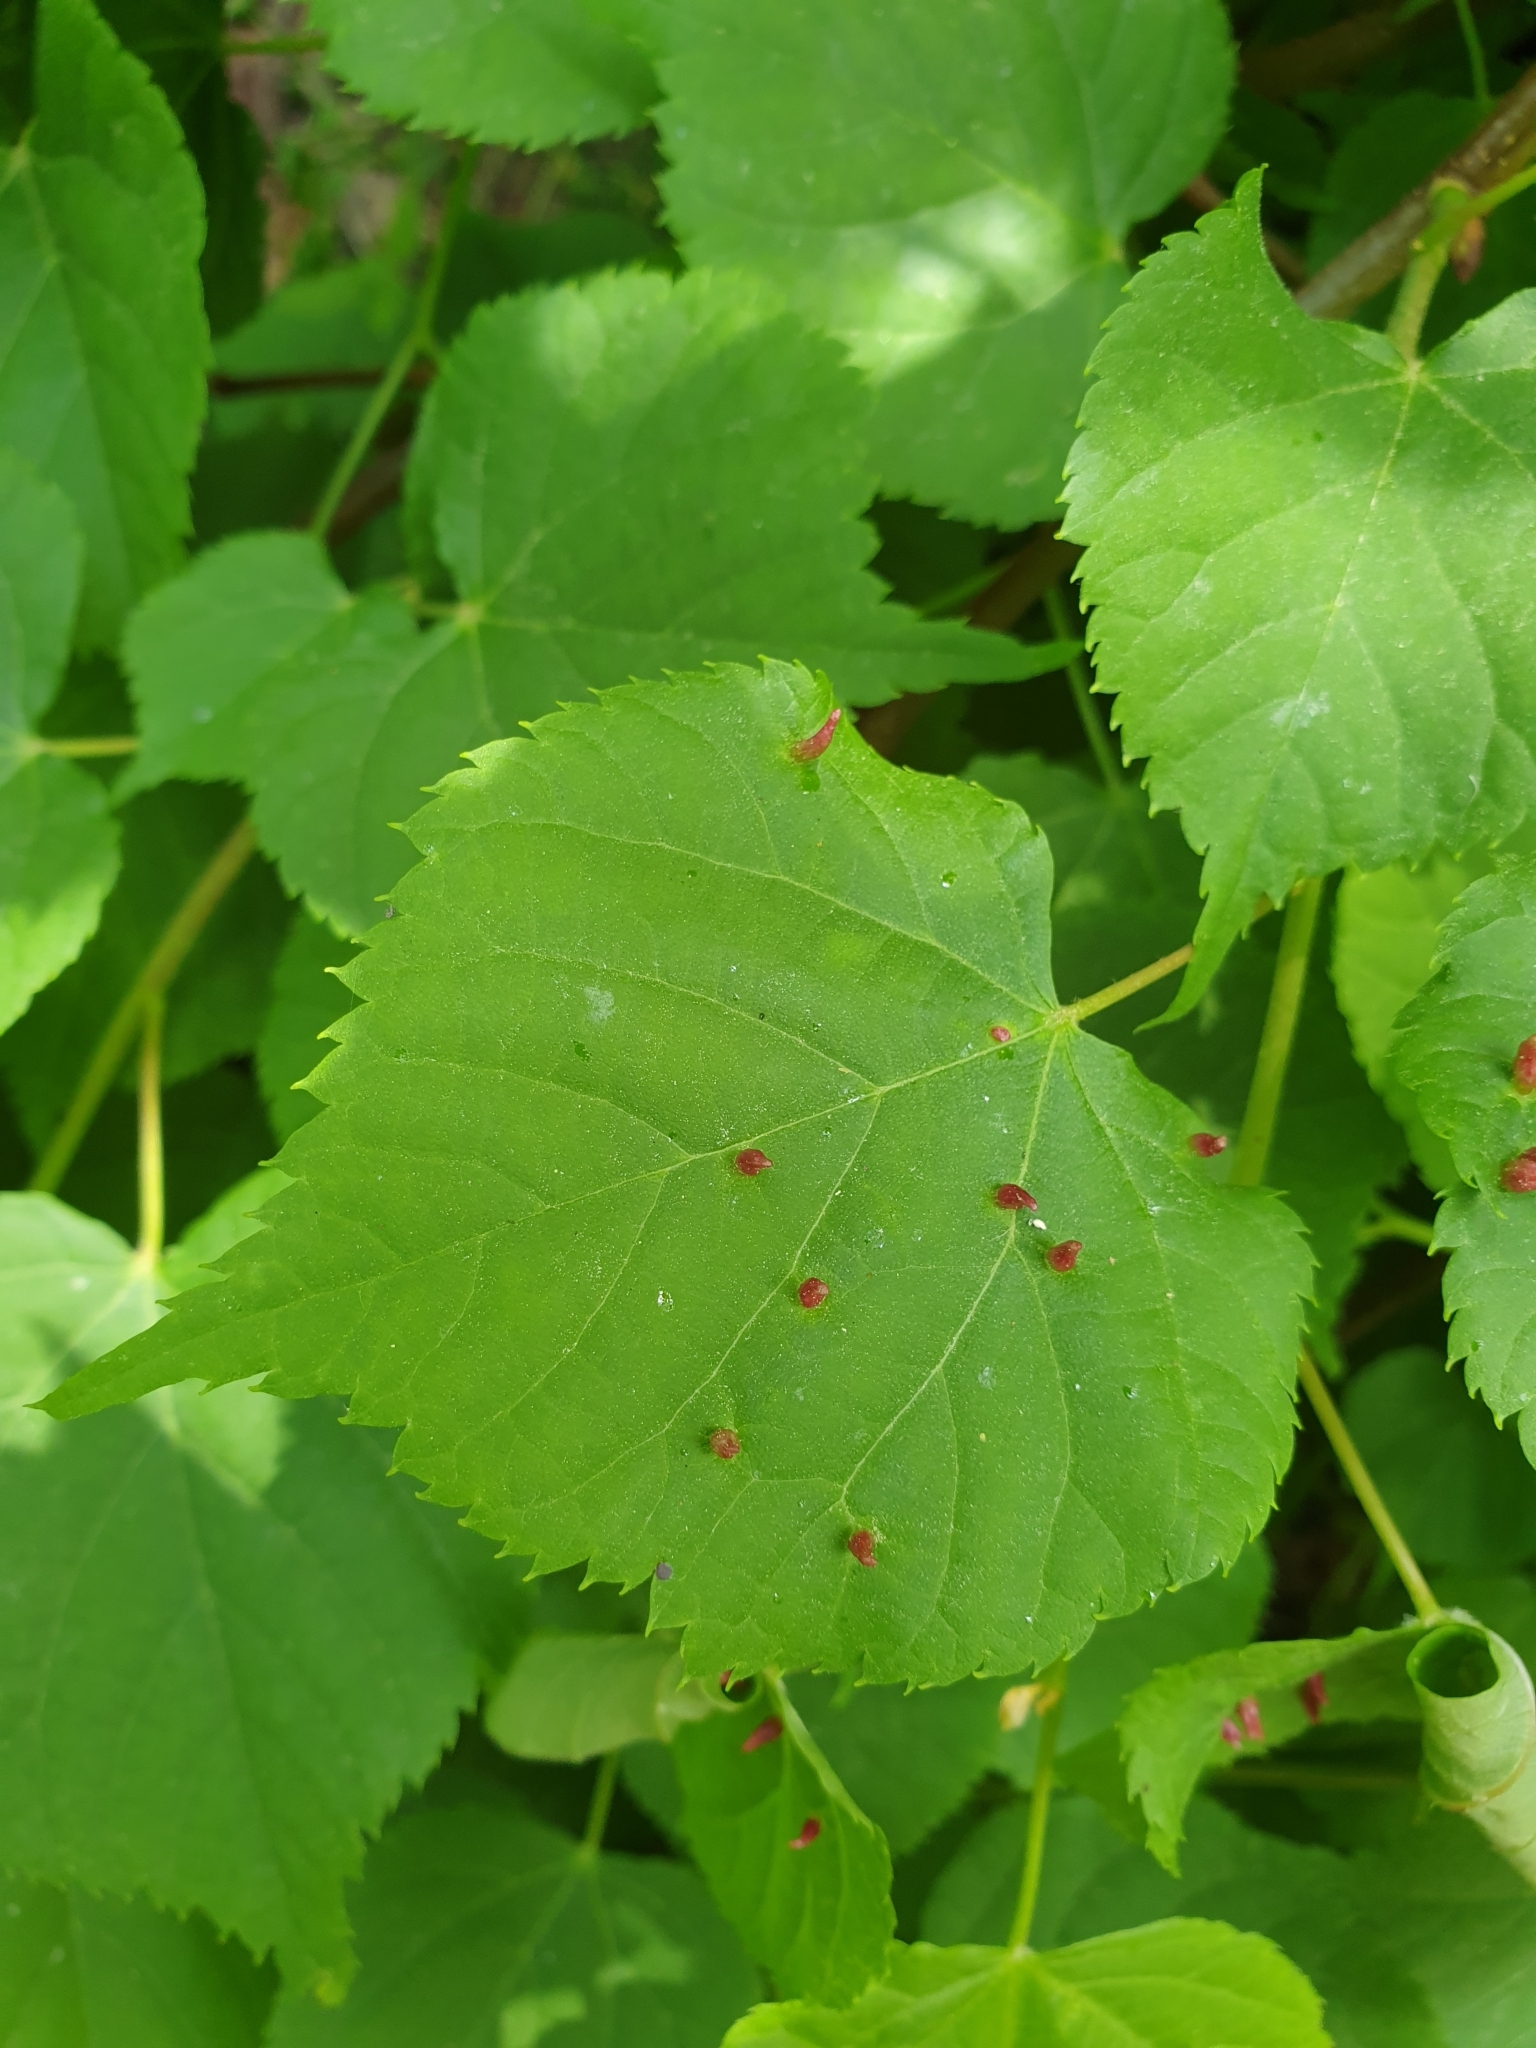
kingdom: Animalia
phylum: Arthropoda
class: Arachnida
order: Trombidiformes
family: Eriophyidae
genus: Eriophyes
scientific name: Eriophyes tiliae
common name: Red nail gall mite
